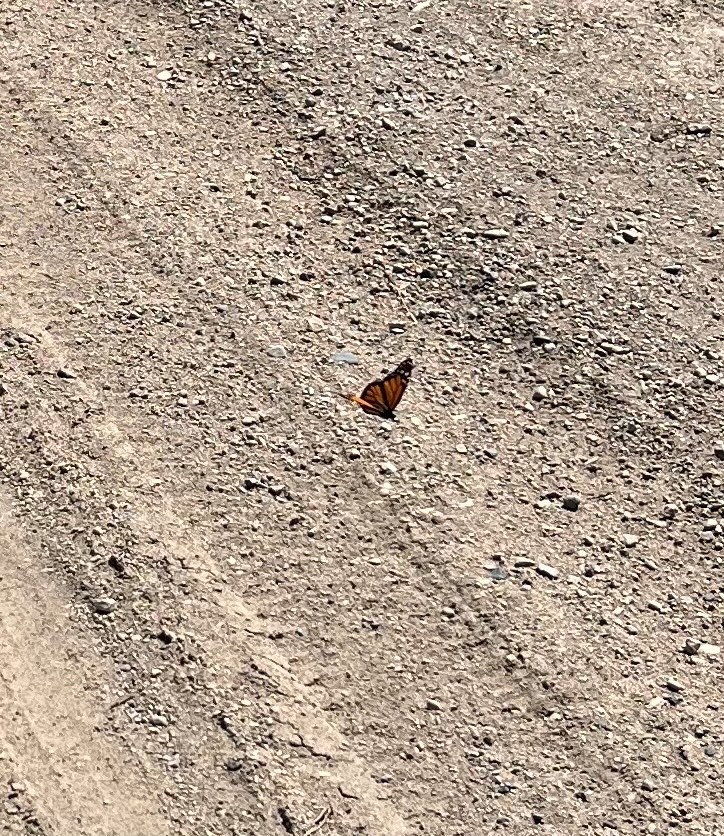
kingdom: Animalia
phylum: Arthropoda
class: Insecta
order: Lepidoptera
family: Nymphalidae
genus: Danaus
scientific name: Danaus plexippus
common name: Monarch
